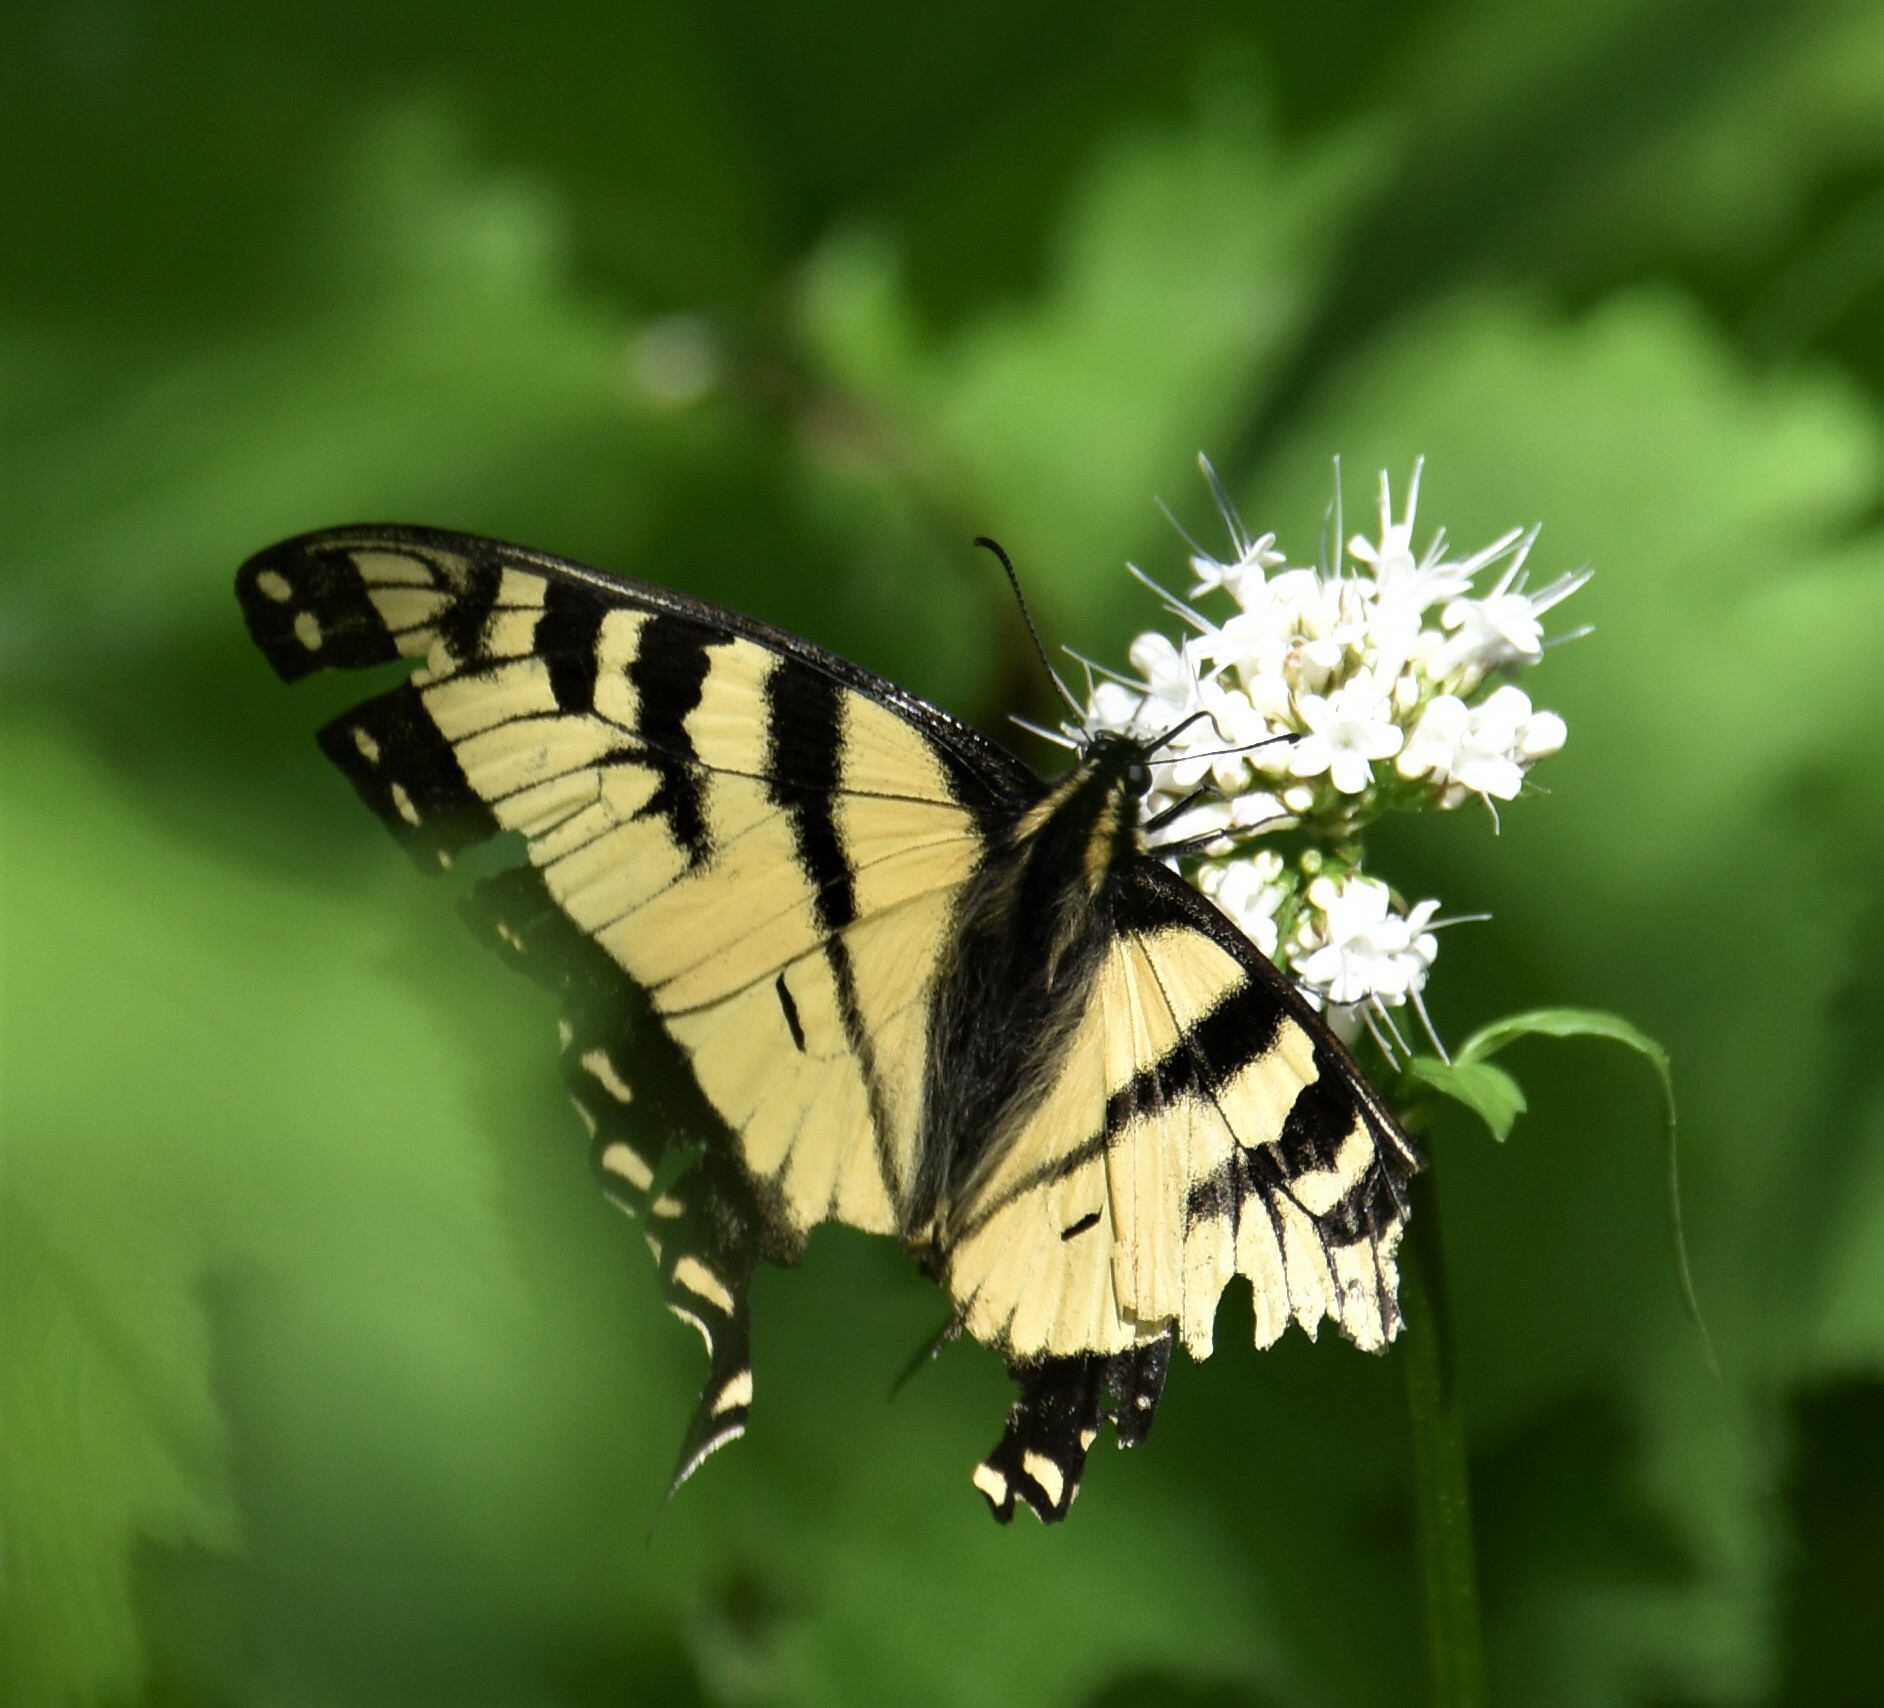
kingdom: Animalia
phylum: Arthropoda
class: Insecta
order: Lepidoptera
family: Papilionidae
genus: Papilio
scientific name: Papilio canadensis
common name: Canadian tiger swallowtail
